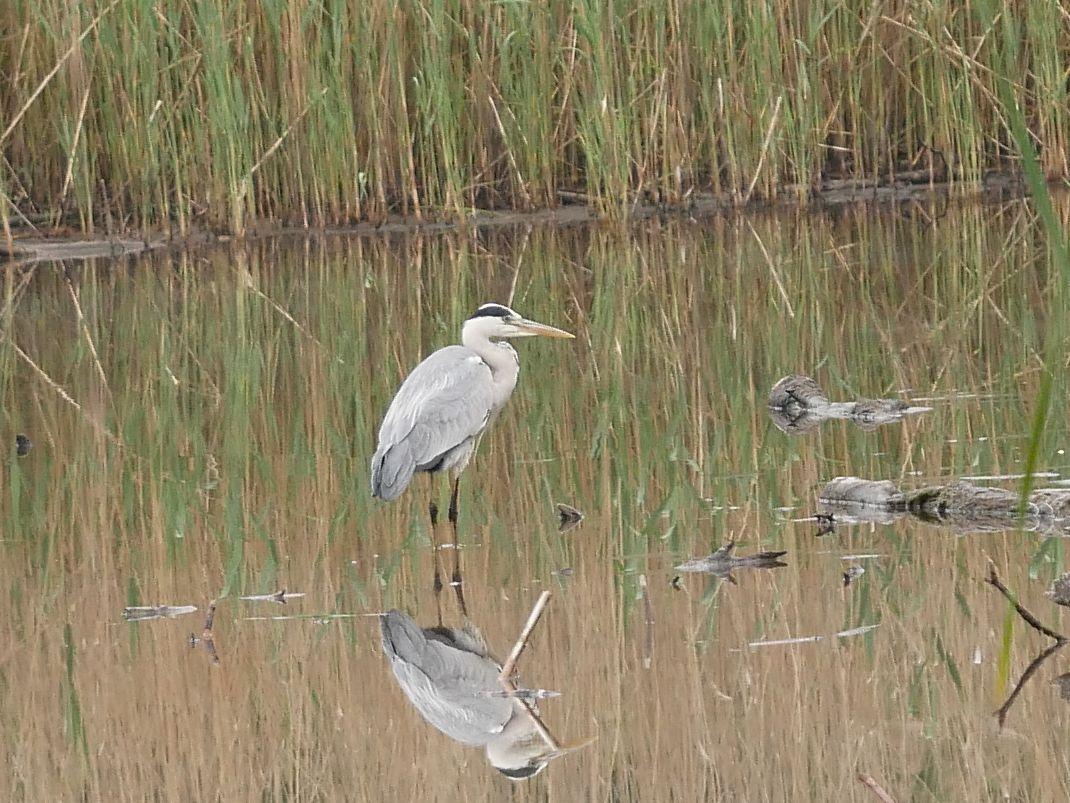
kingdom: Animalia
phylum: Chordata
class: Aves
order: Pelecaniformes
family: Ardeidae
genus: Ardea
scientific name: Ardea cinerea
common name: Grey heron
